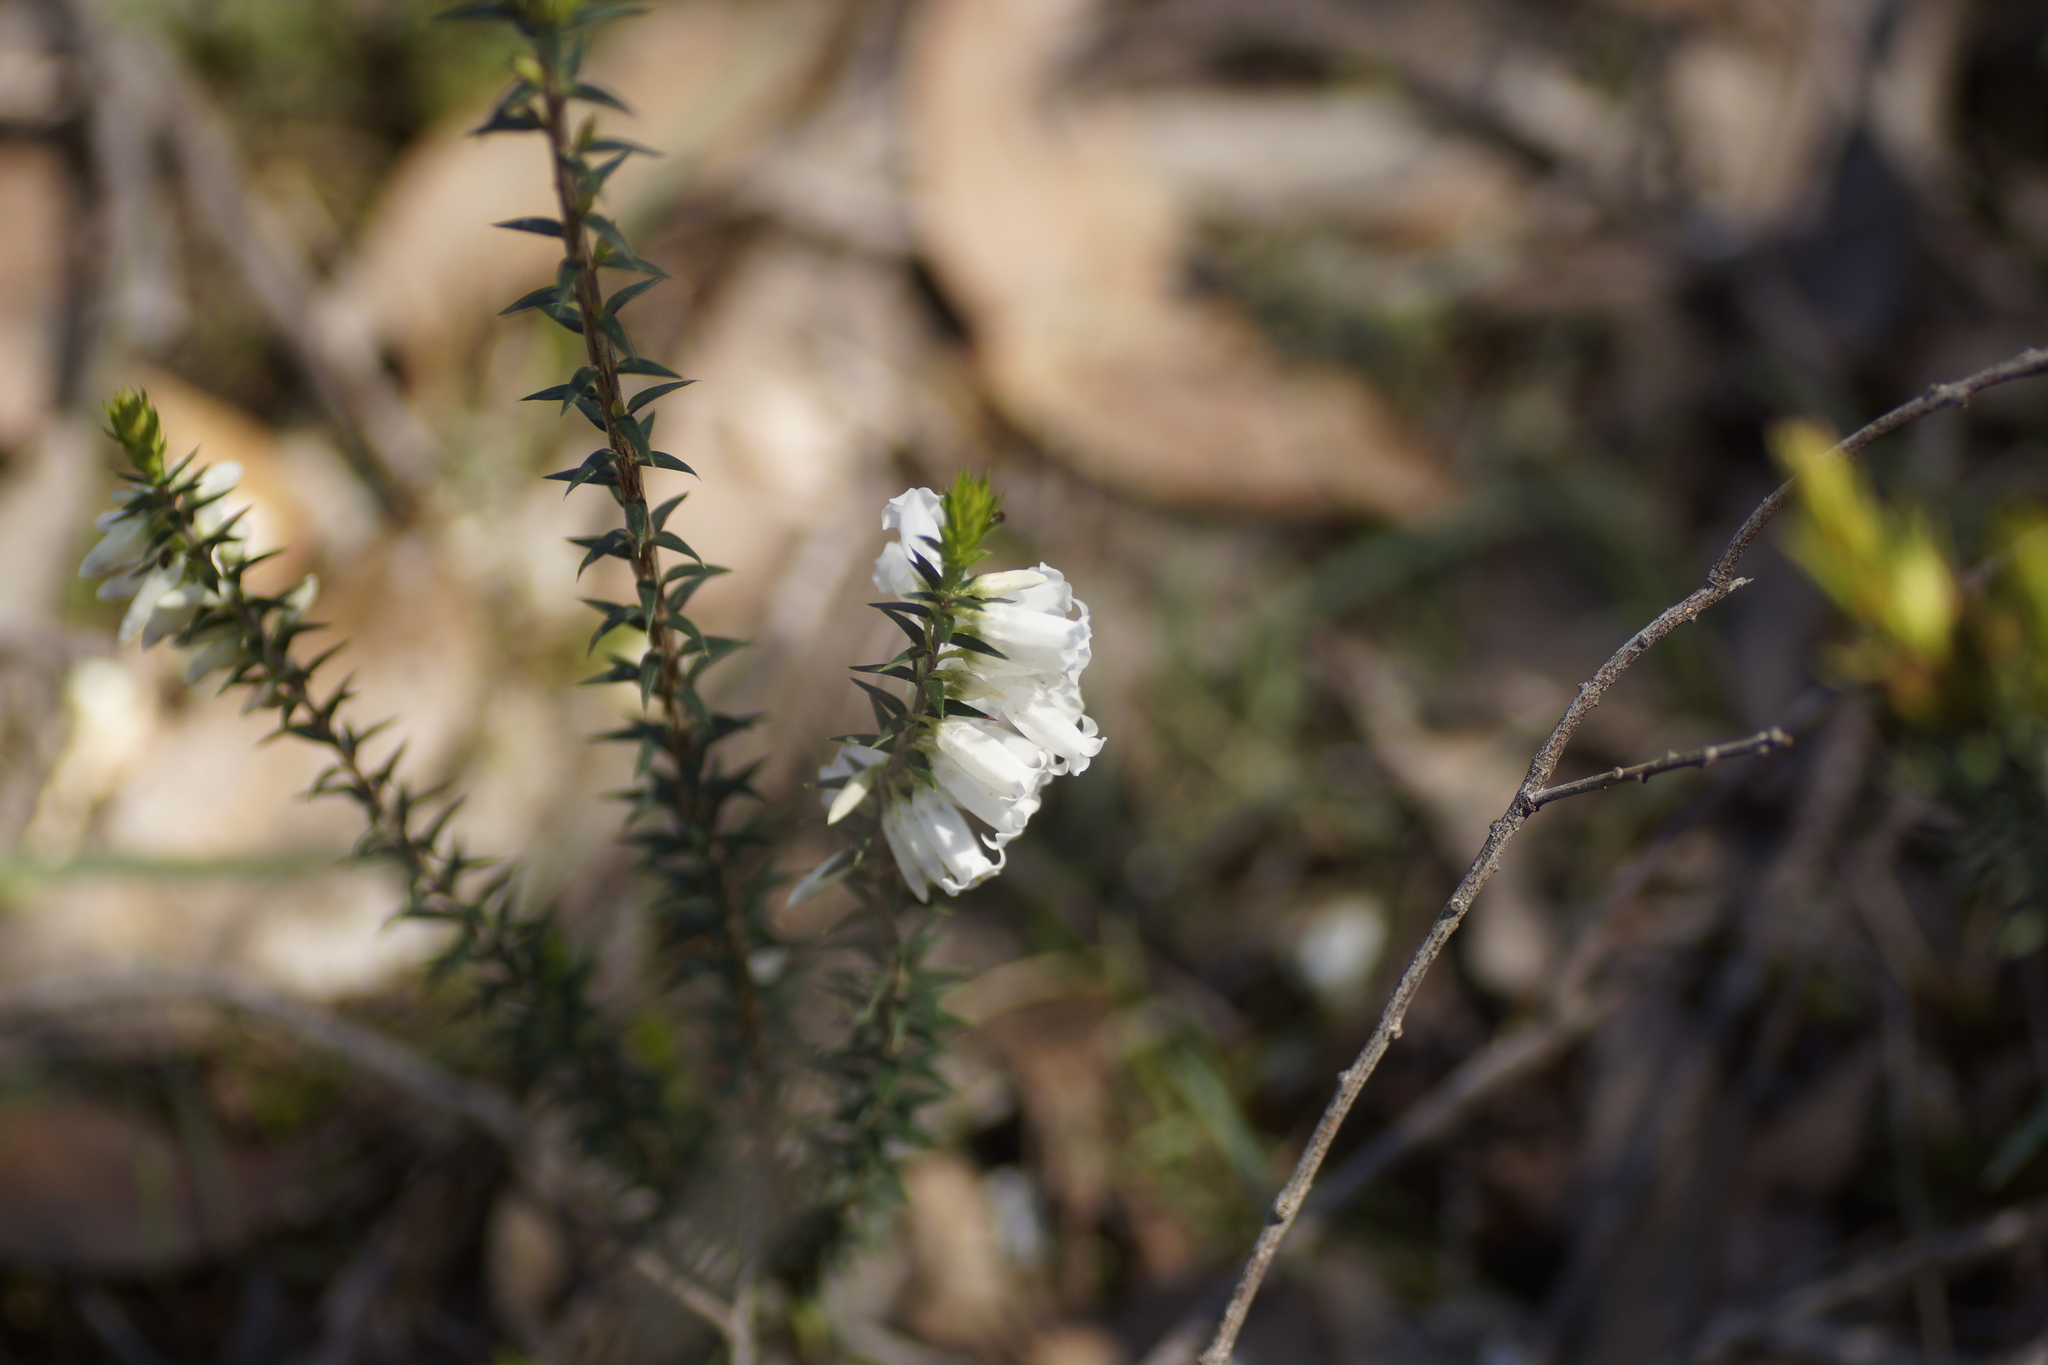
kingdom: Plantae
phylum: Tracheophyta
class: Magnoliopsida
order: Ericales
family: Ericaceae
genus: Epacris
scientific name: Epacris impressa
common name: Common-heath
